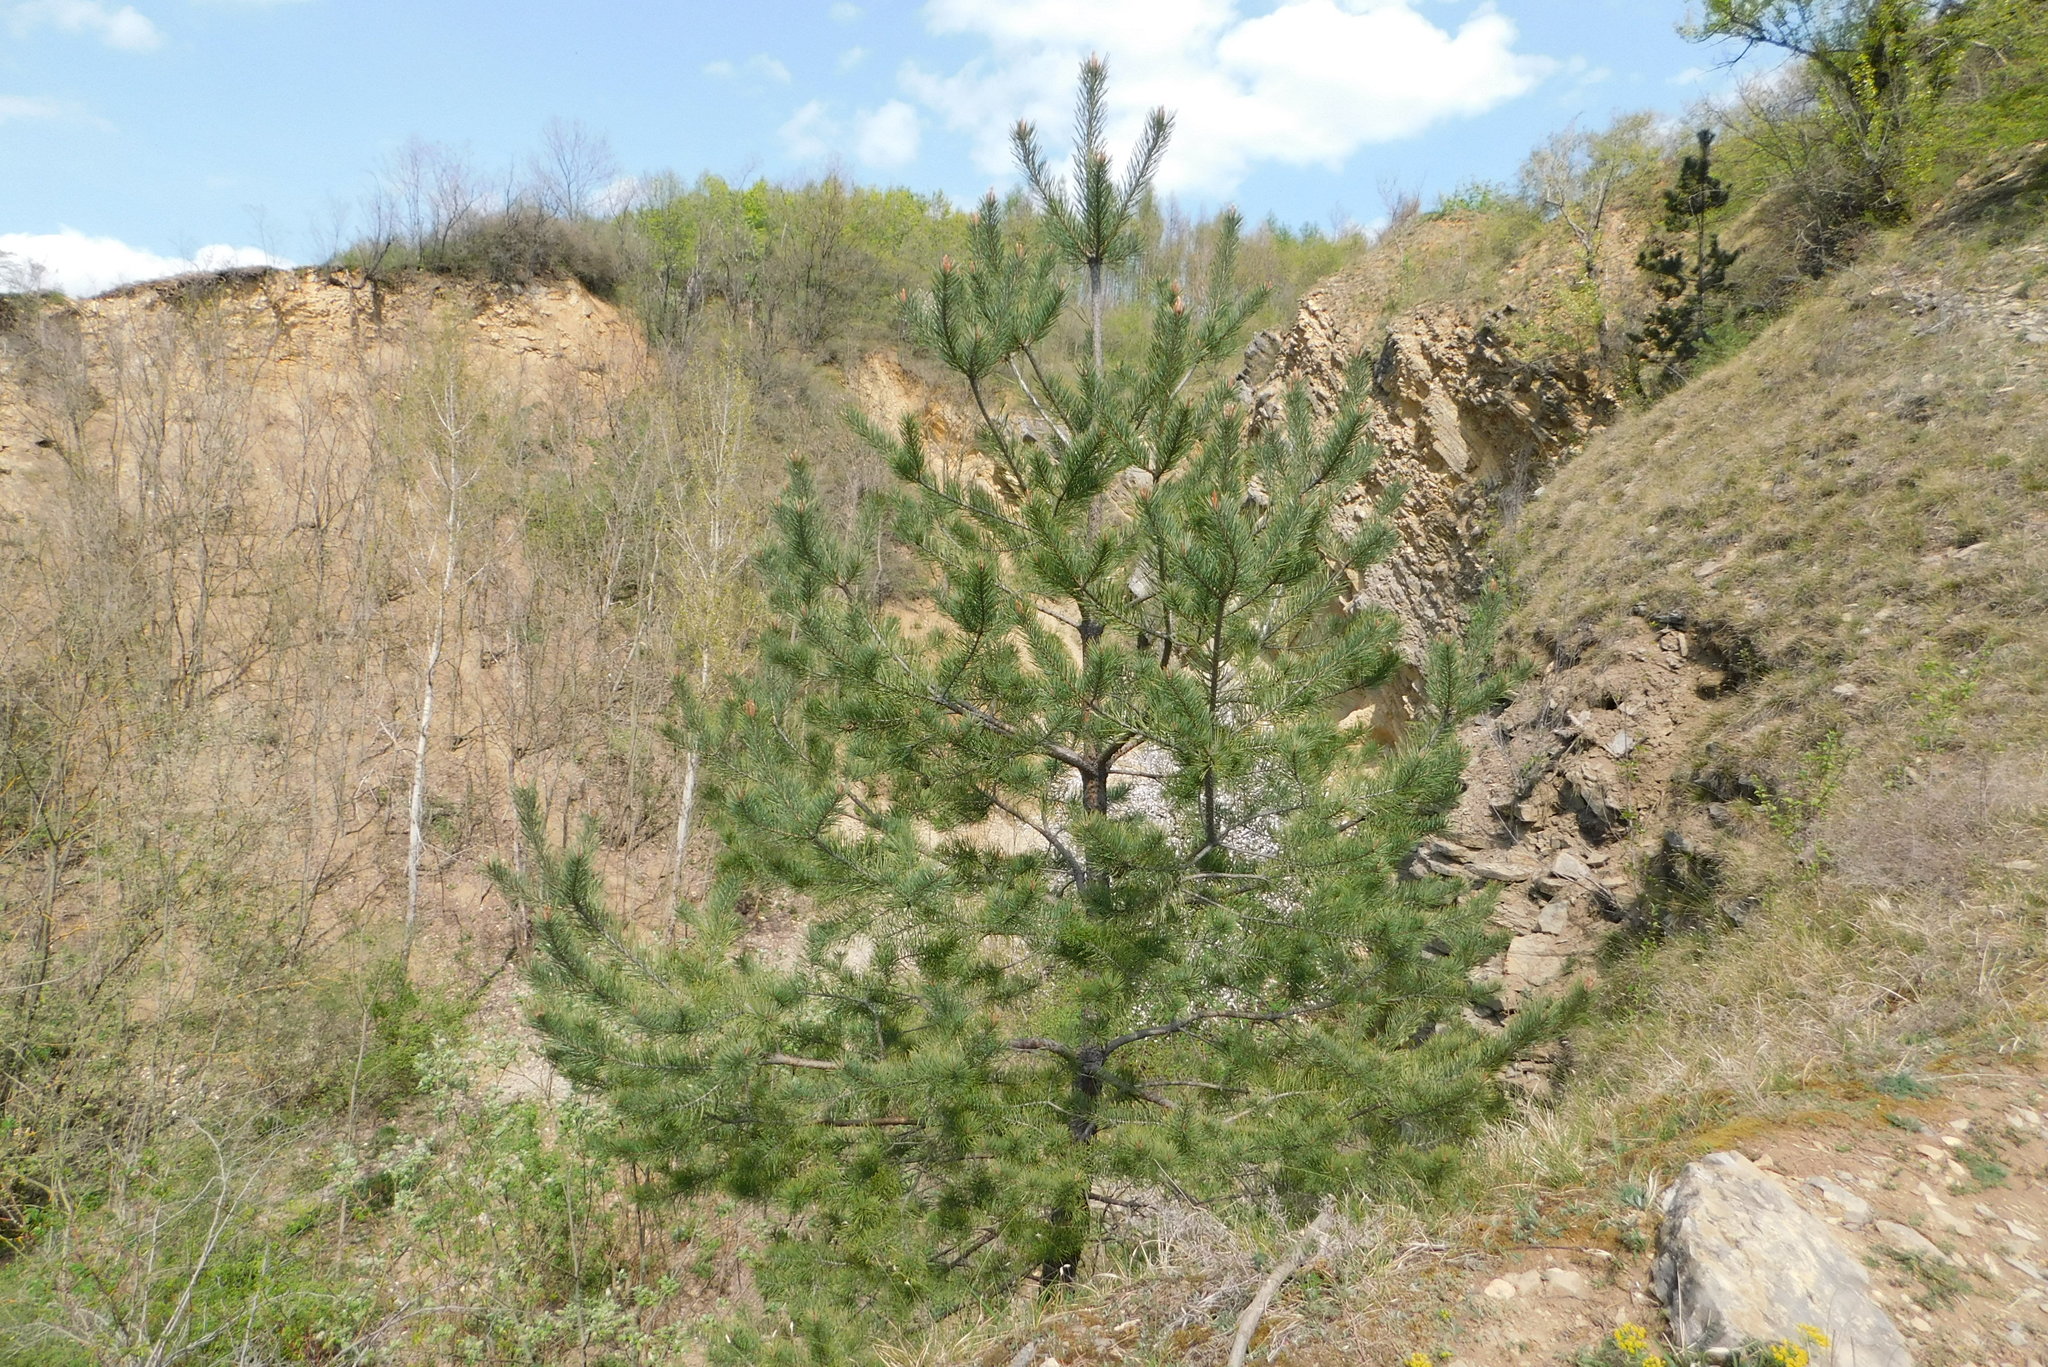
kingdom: Plantae
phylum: Tracheophyta
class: Pinopsida
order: Pinales
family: Pinaceae
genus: Pinus
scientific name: Pinus sylvestris
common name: Scots pine
